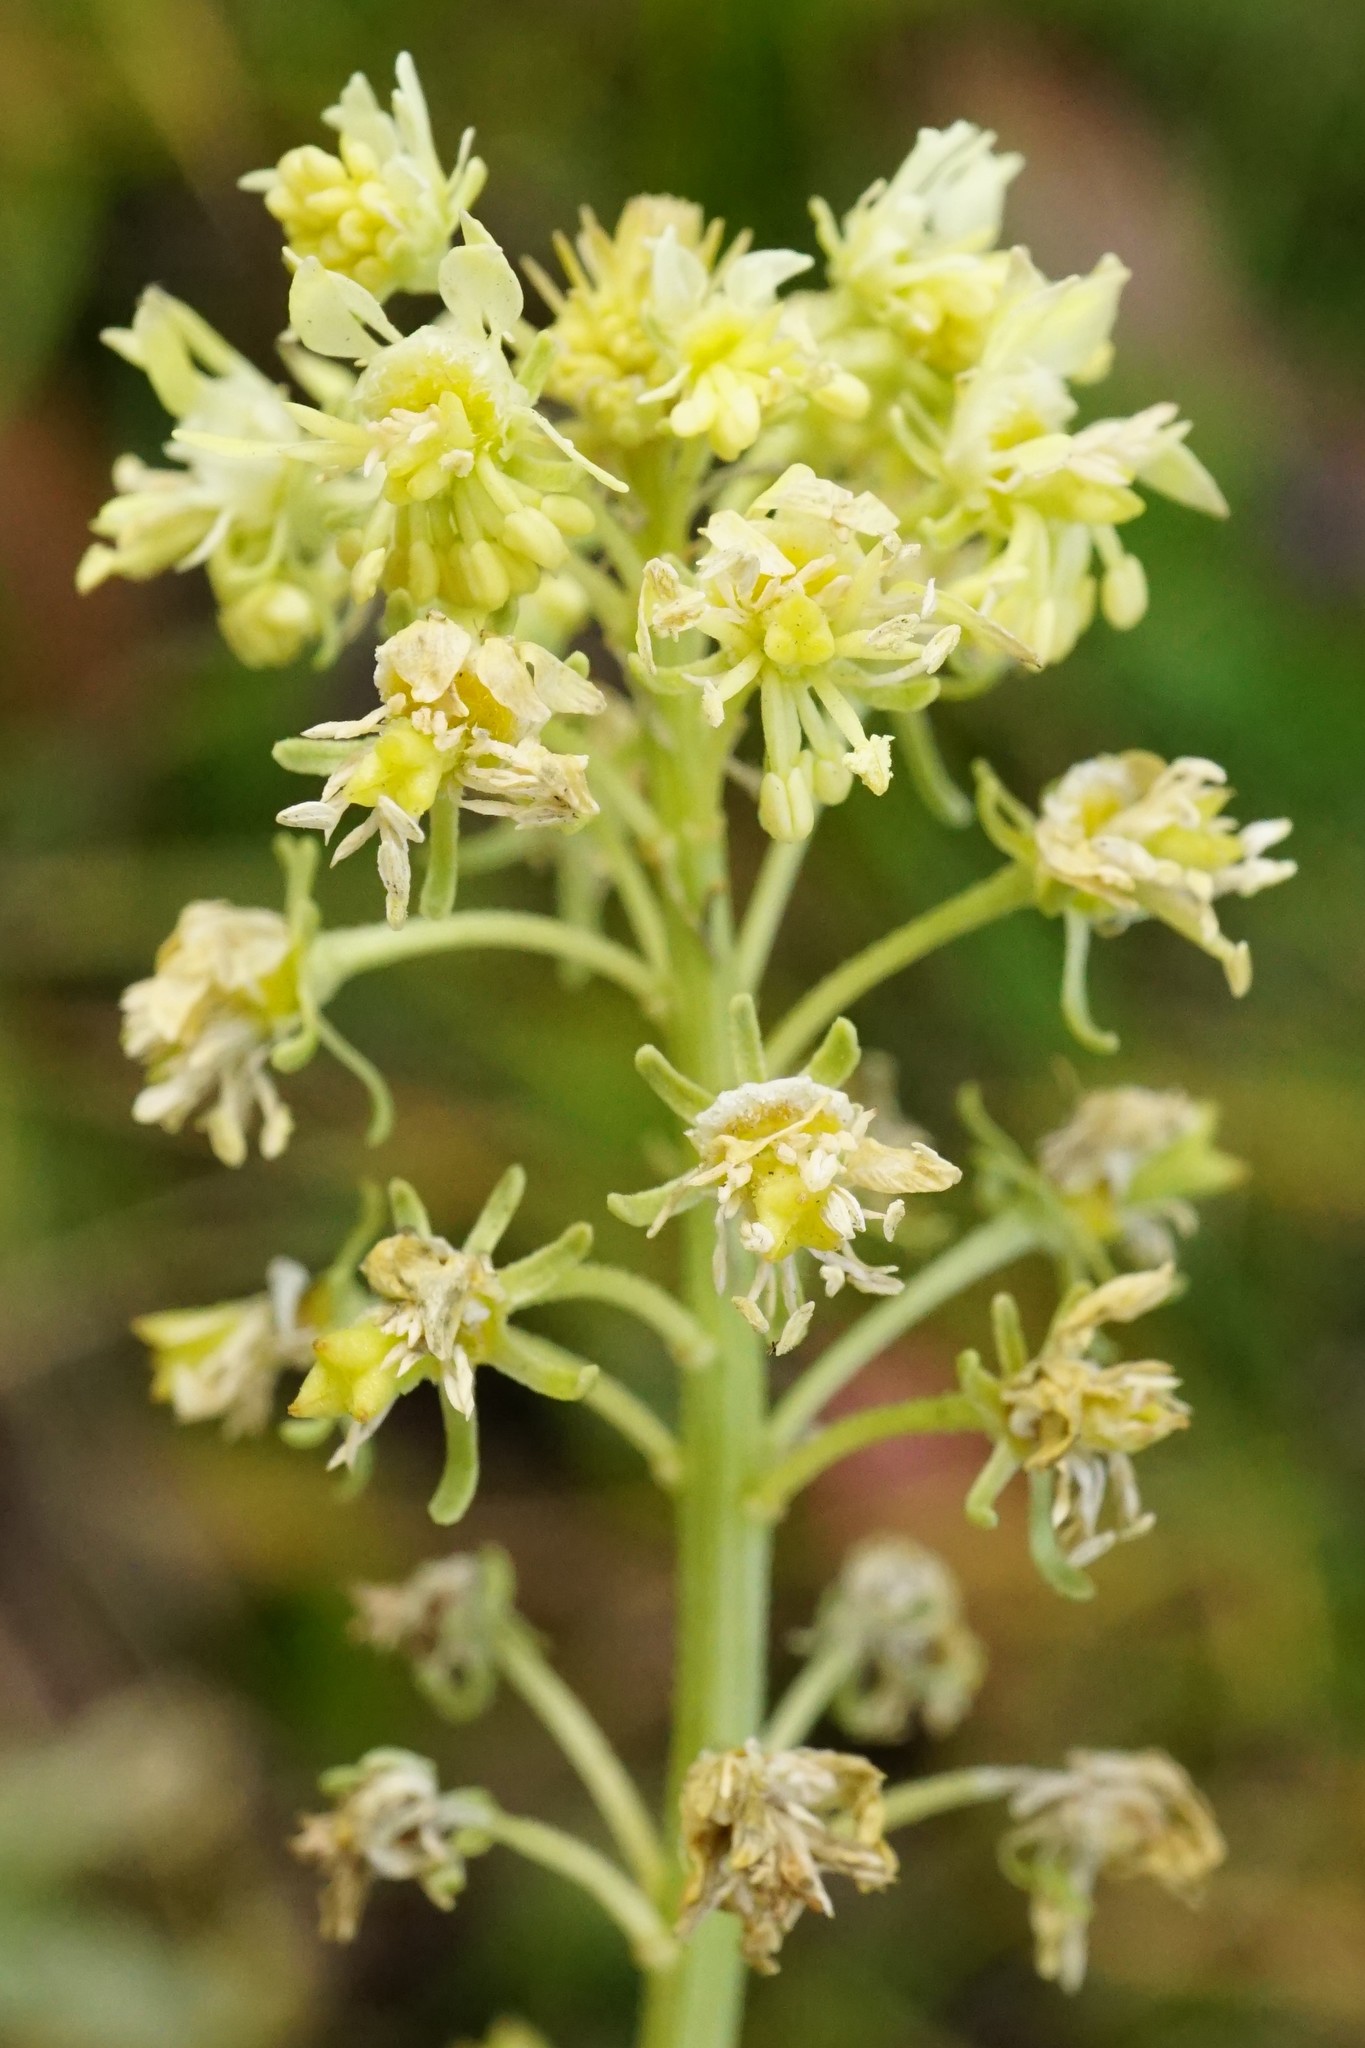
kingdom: Plantae
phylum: Tracheophyta
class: Magnoliopsida
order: Brassicales
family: Resedaceae
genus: Reseda
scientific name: Reseda lutea
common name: Wild mignonette
